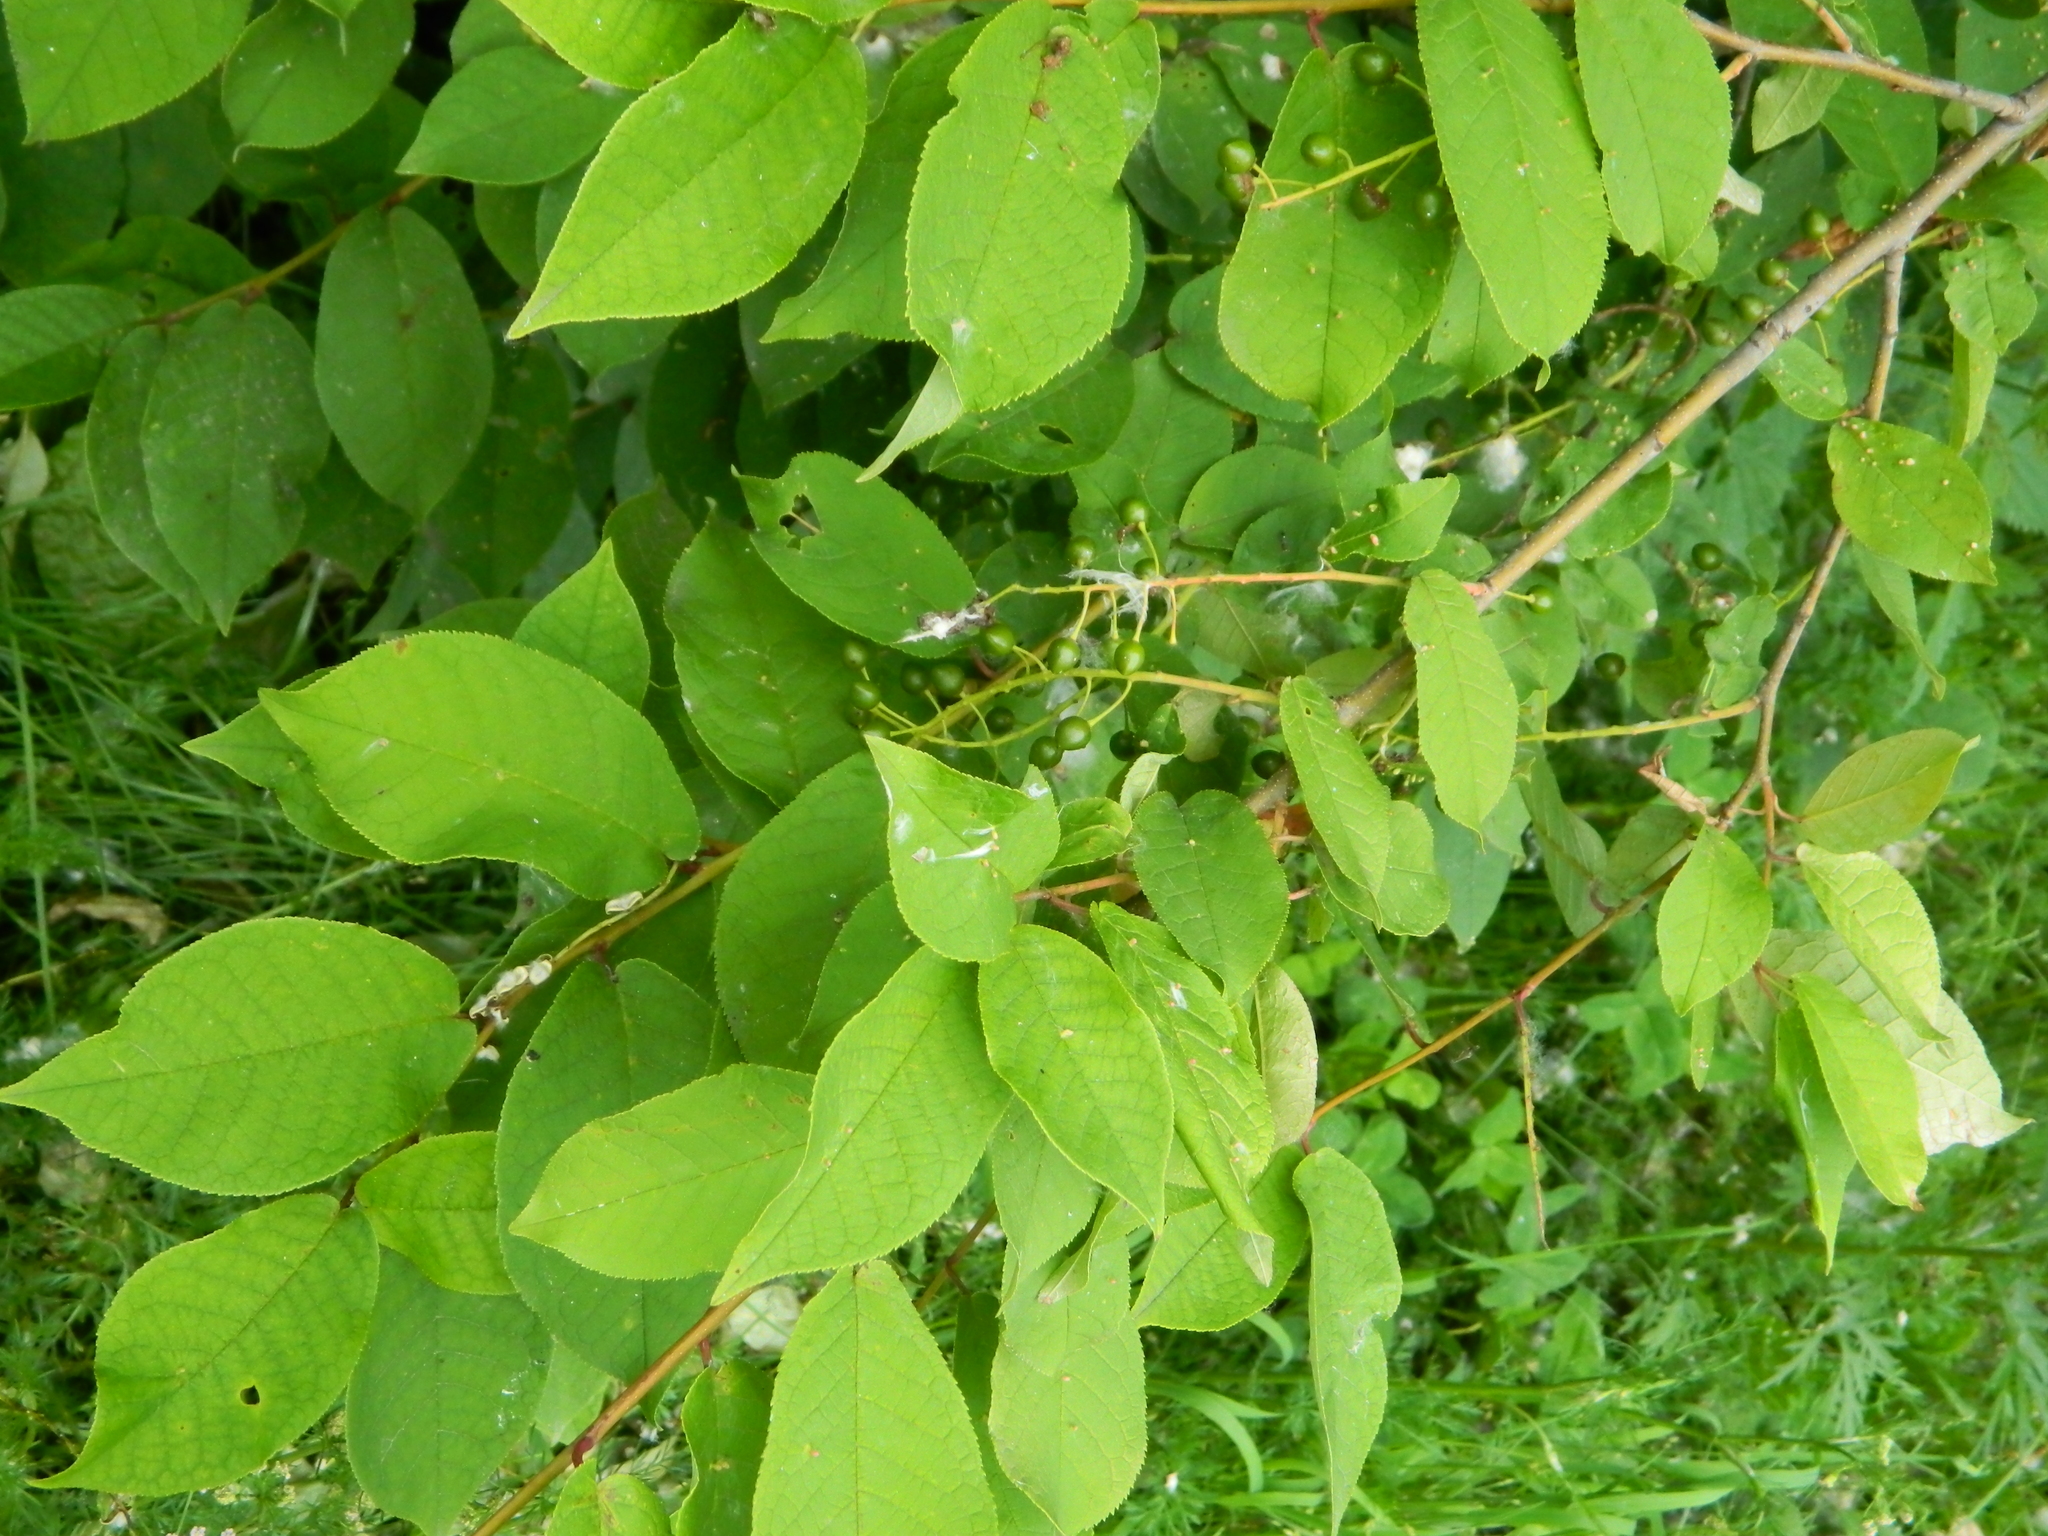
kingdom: Plantae
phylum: Tracheophyta
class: Magnoliopsida
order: Rosales
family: Rosaceae
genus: Prunus
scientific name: Prunus padus
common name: Bird cherry
